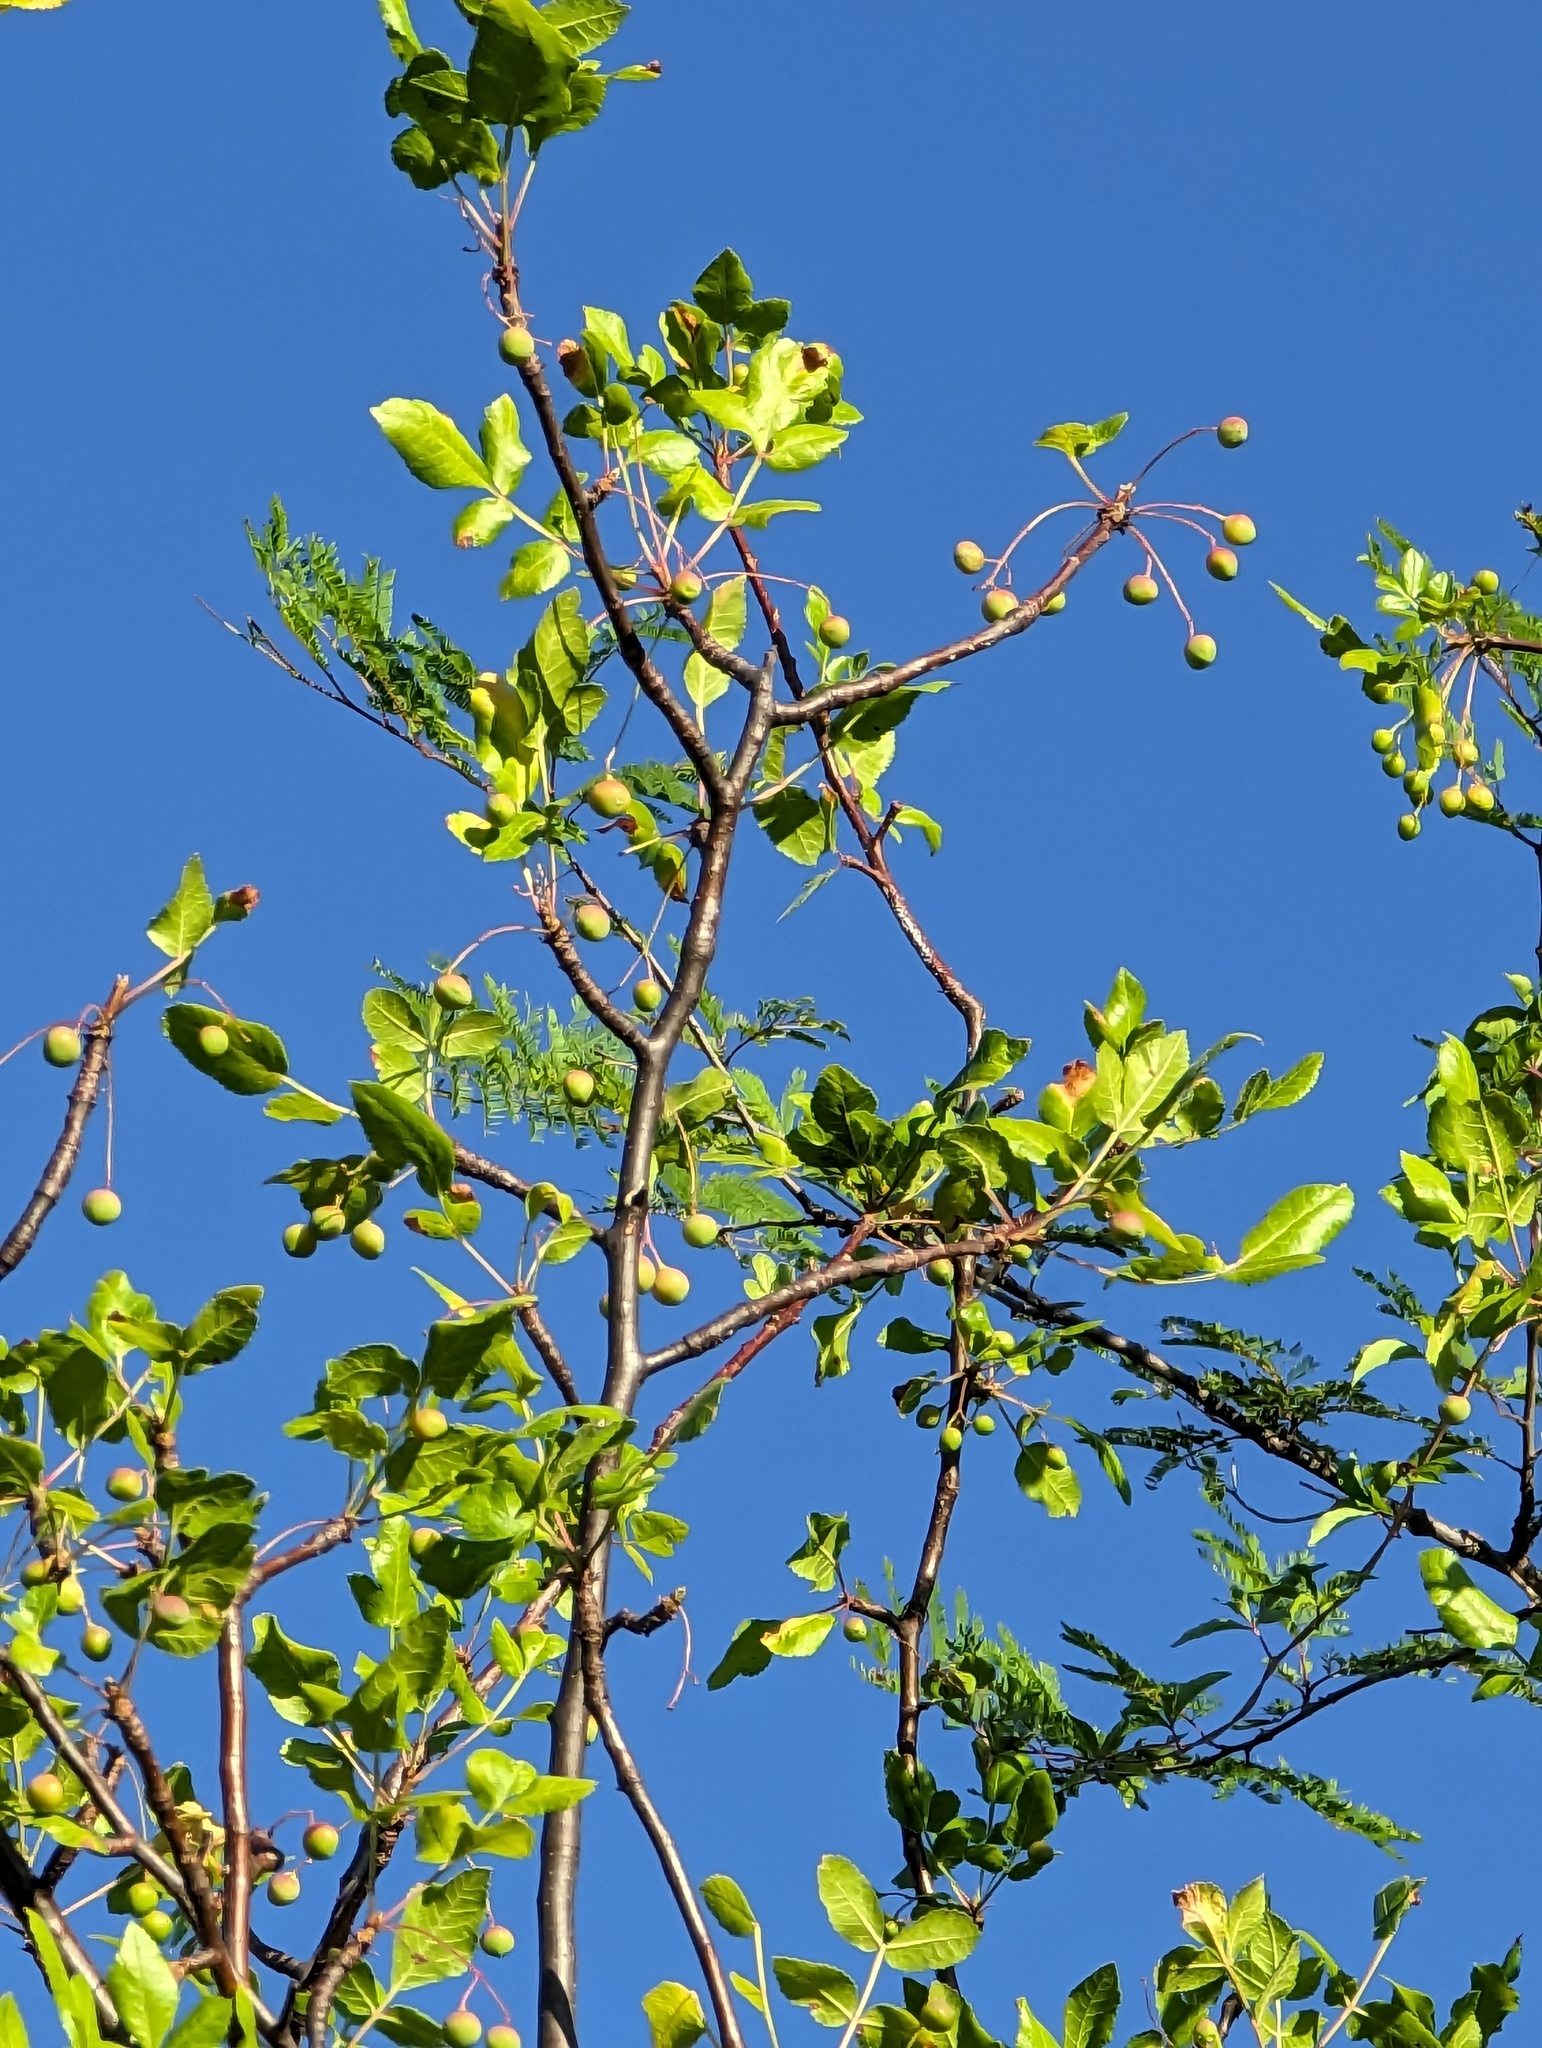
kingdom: Plantae
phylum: Tracheophyta
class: Magnoliopsida
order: Sapindales
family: Burseraceae
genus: Bursera
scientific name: Bursera epinnata
